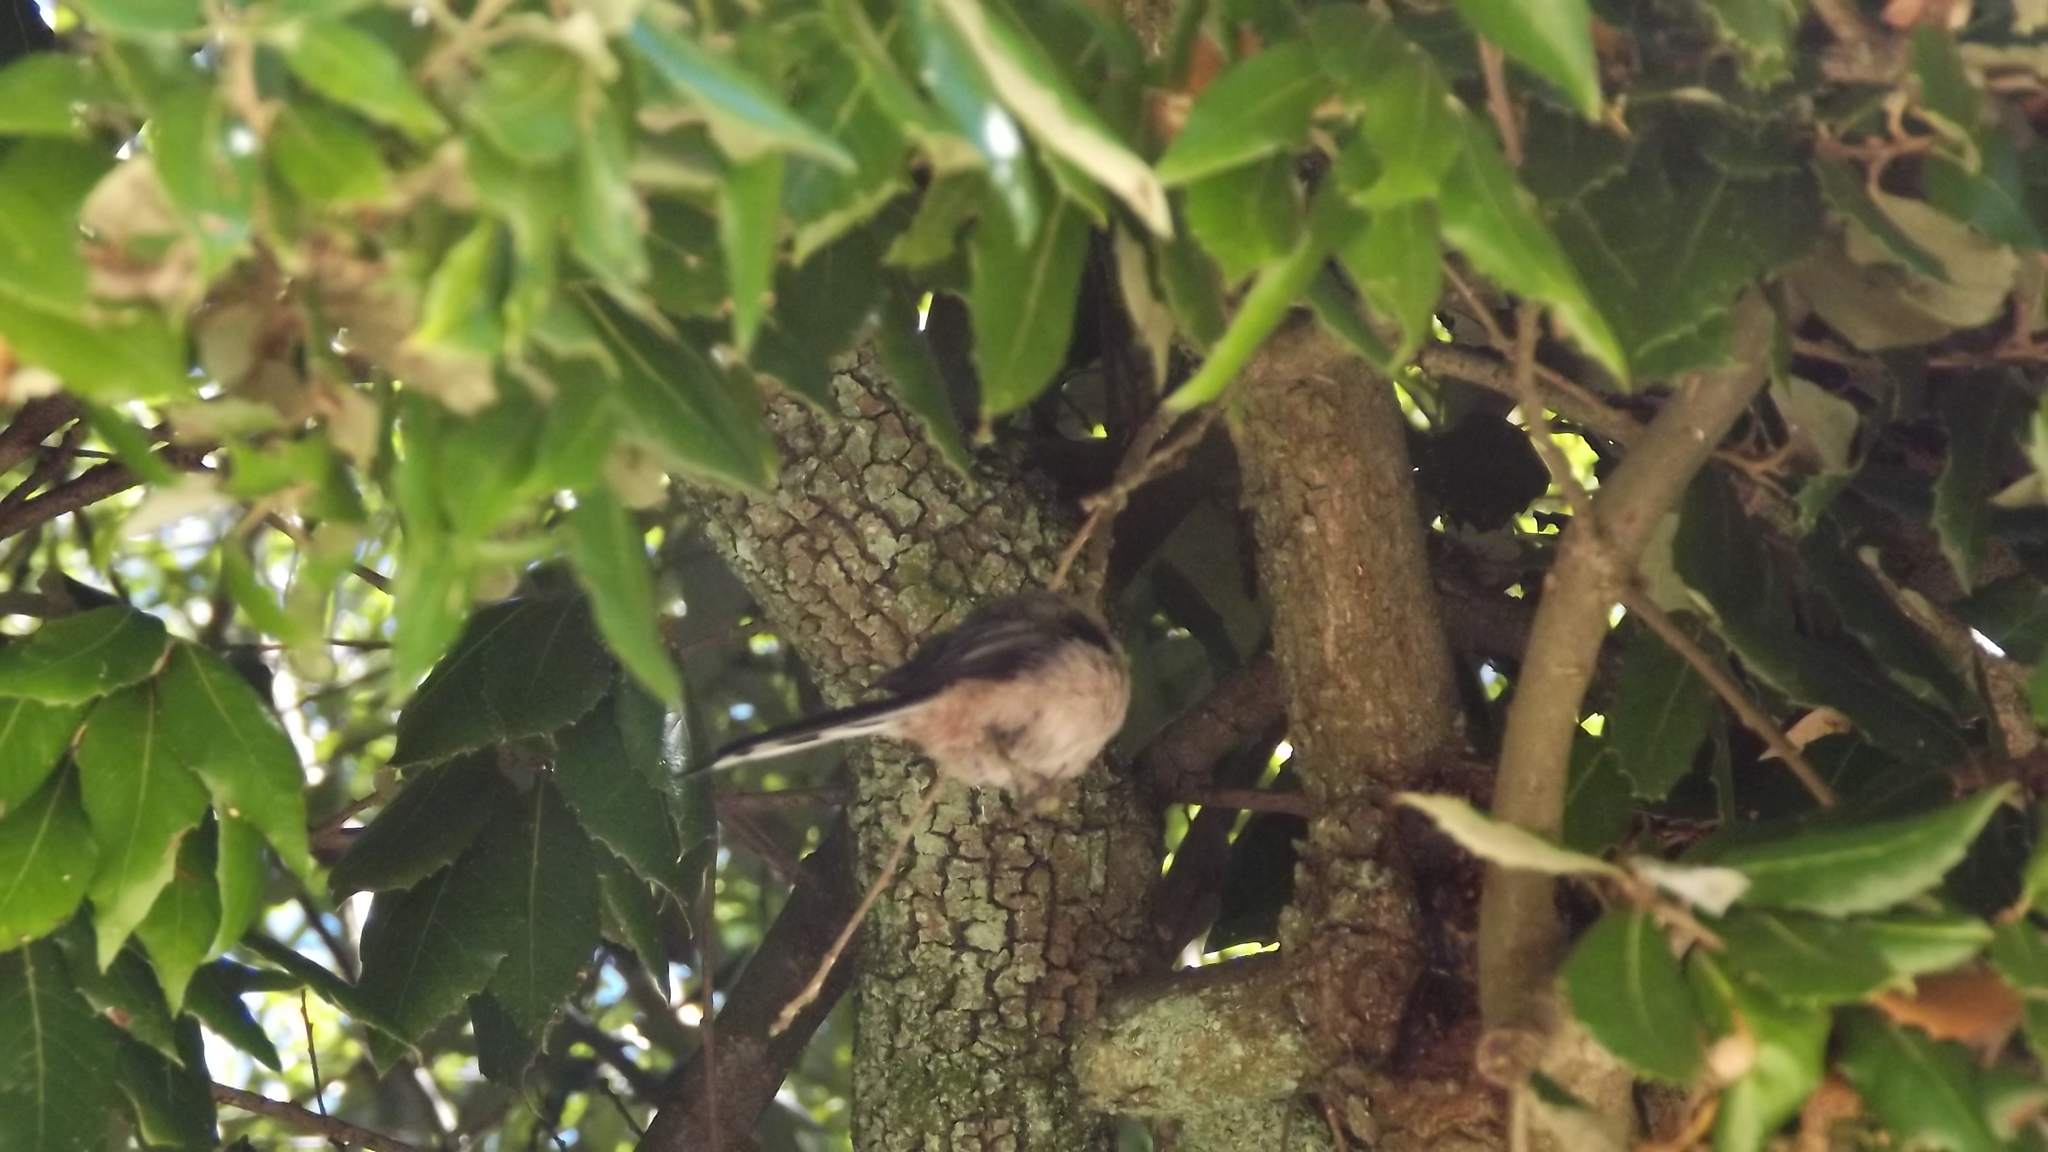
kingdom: Animalia
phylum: Chordata
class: Aves
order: Passeriformes
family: Aegithalidae
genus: Aegithalos
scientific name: Aegithalos caudatus
